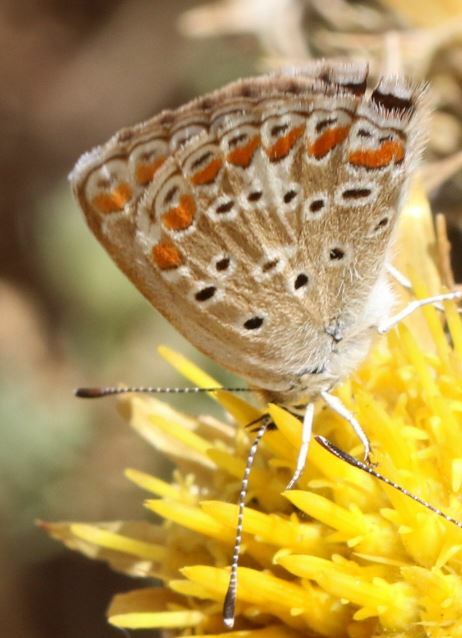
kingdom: Animalia
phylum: Arthropoda
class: Insecta
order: Lepidoptera
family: Lycaenidae
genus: Aricia
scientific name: Aricia agestis
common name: Brown argus
